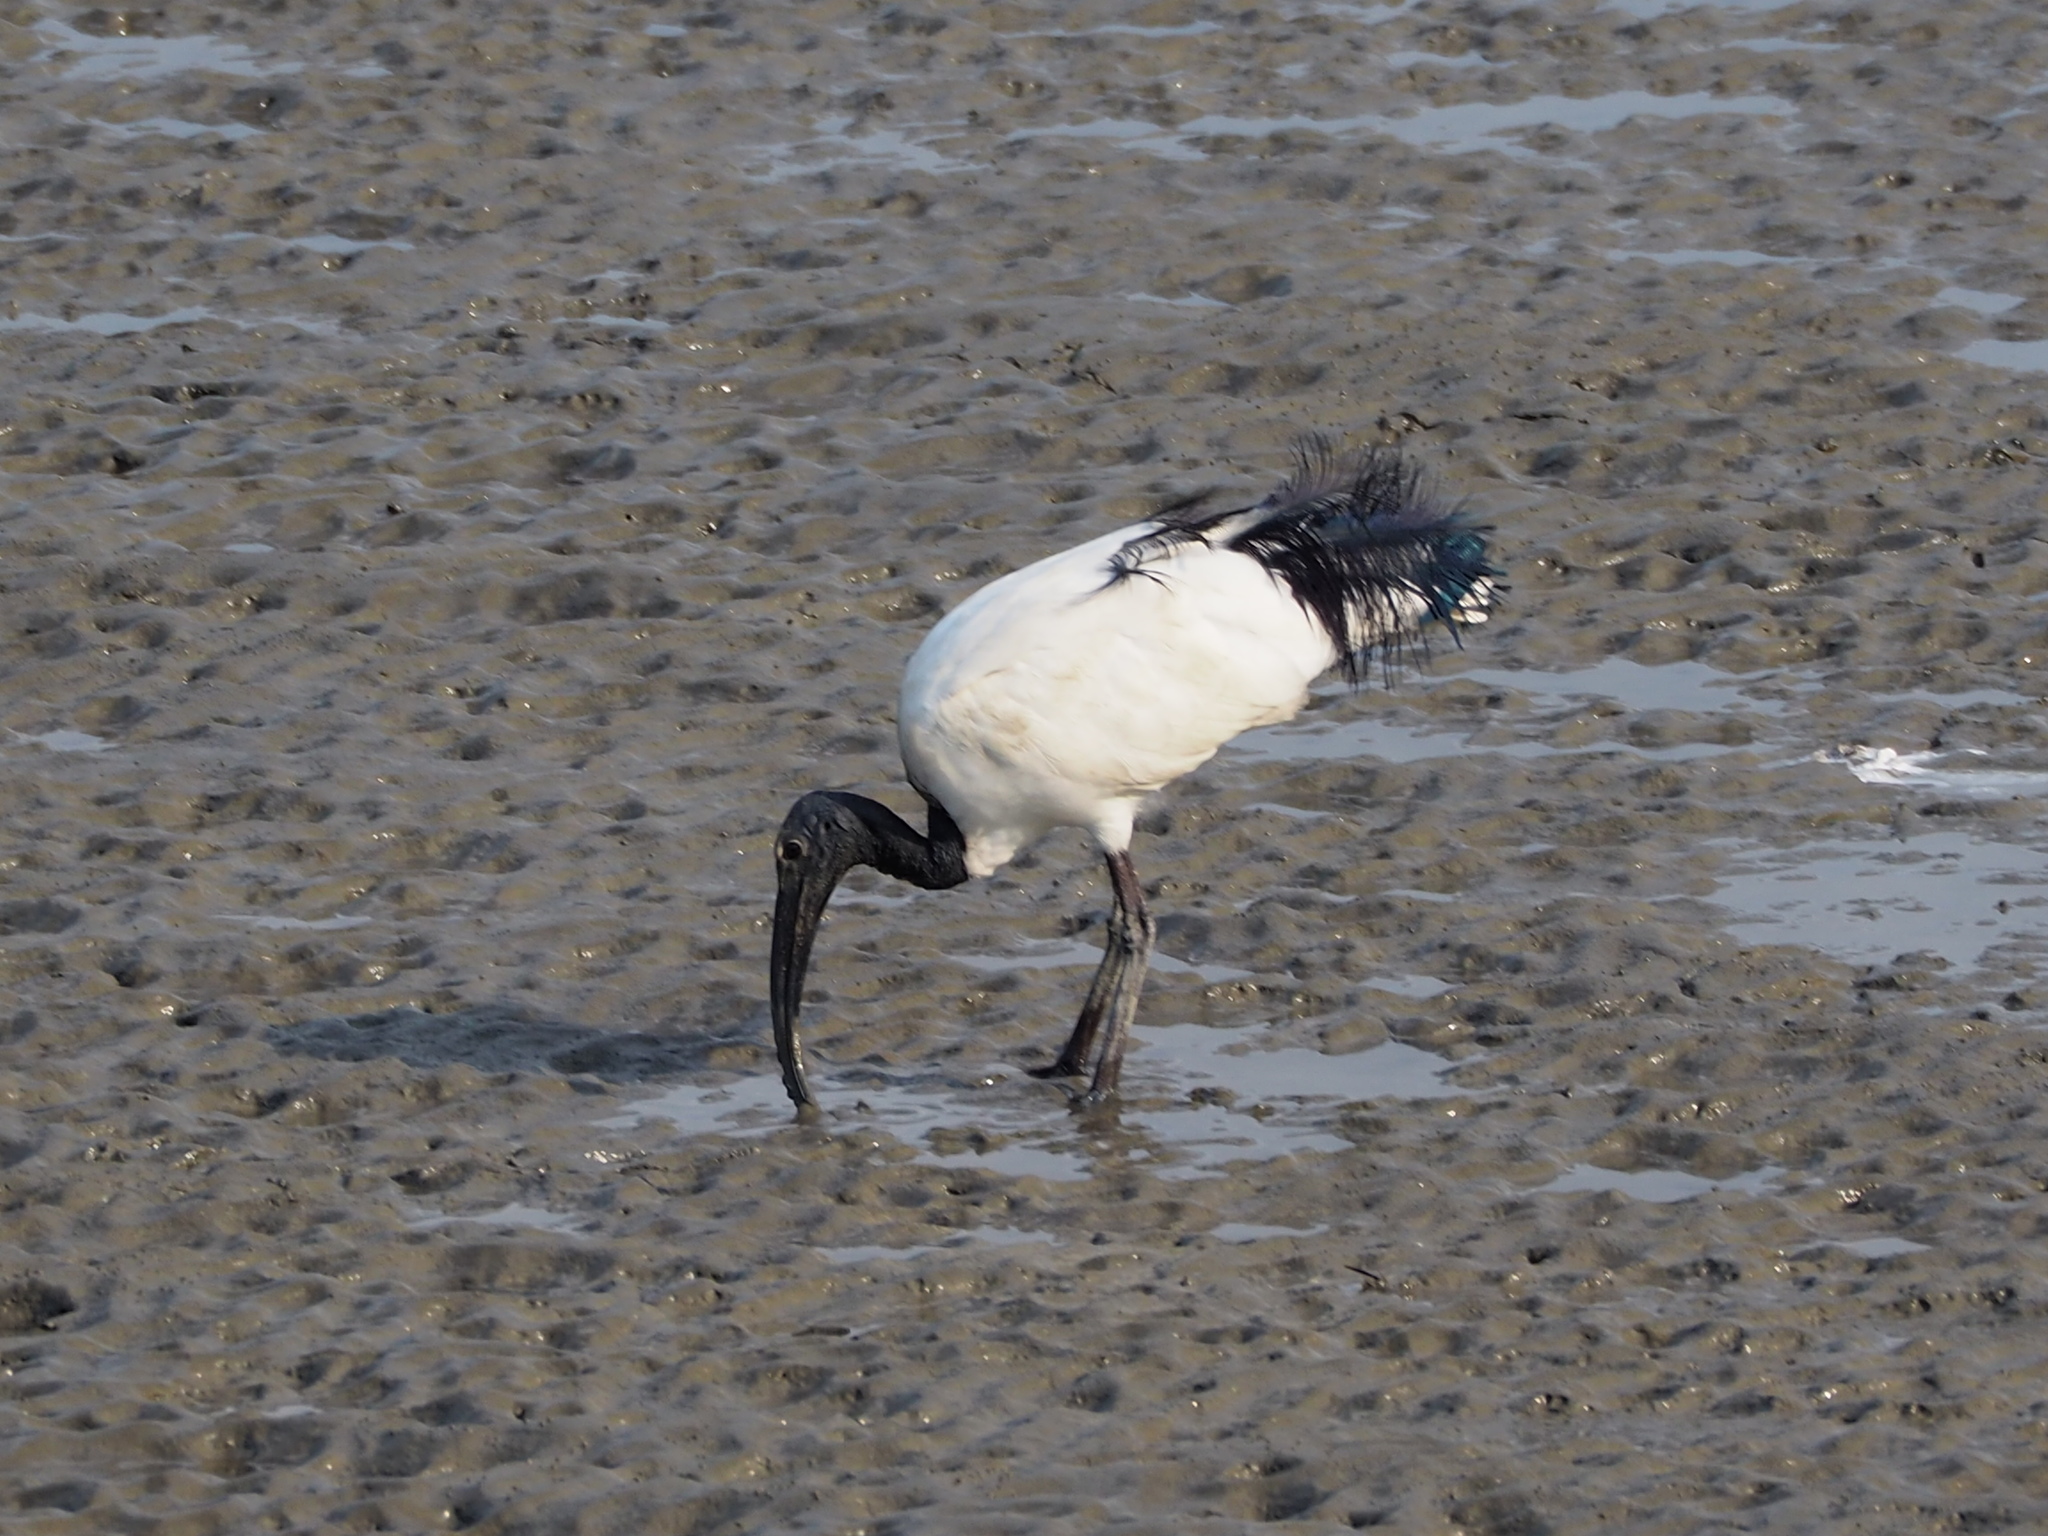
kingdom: Animalia
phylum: Chordata
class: Aves
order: Pelecaniformes
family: Threskiornithidae
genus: Threskiornis
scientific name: Threskiornis aethiopicus
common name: Sacred ibis
